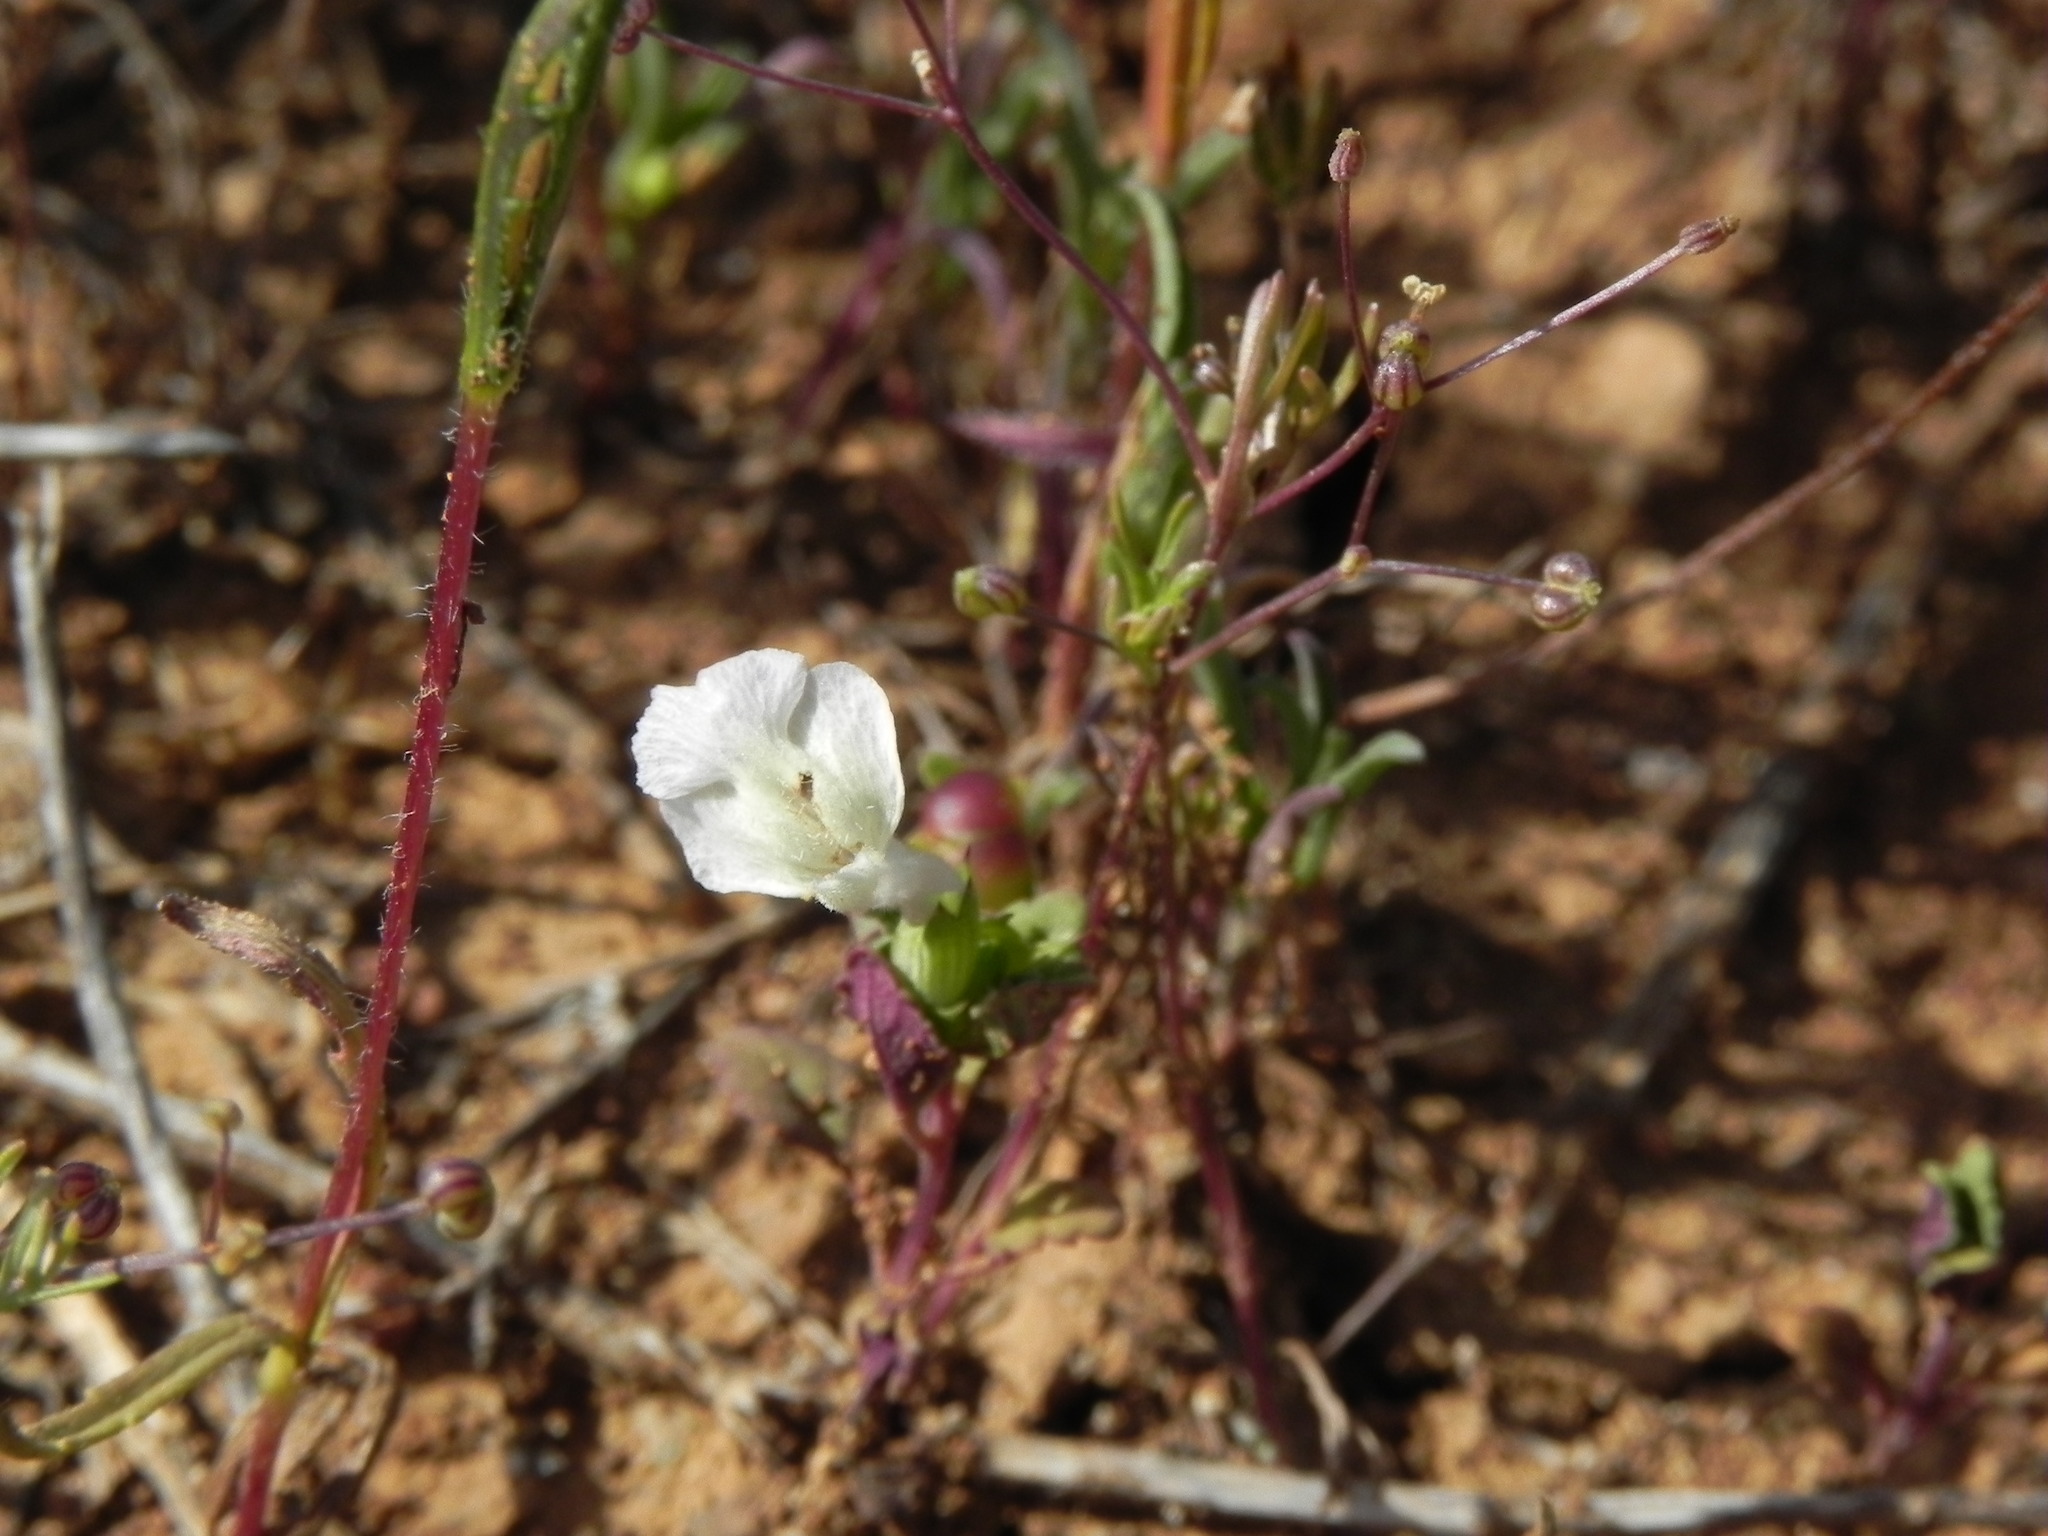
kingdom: Plantae
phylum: Tracheophyta
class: Magnoliopsida
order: Lamiales
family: Lamiaceae
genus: Acanthomintha
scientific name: Acanthomintha ilicifolia
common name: San diego thorn-mint
